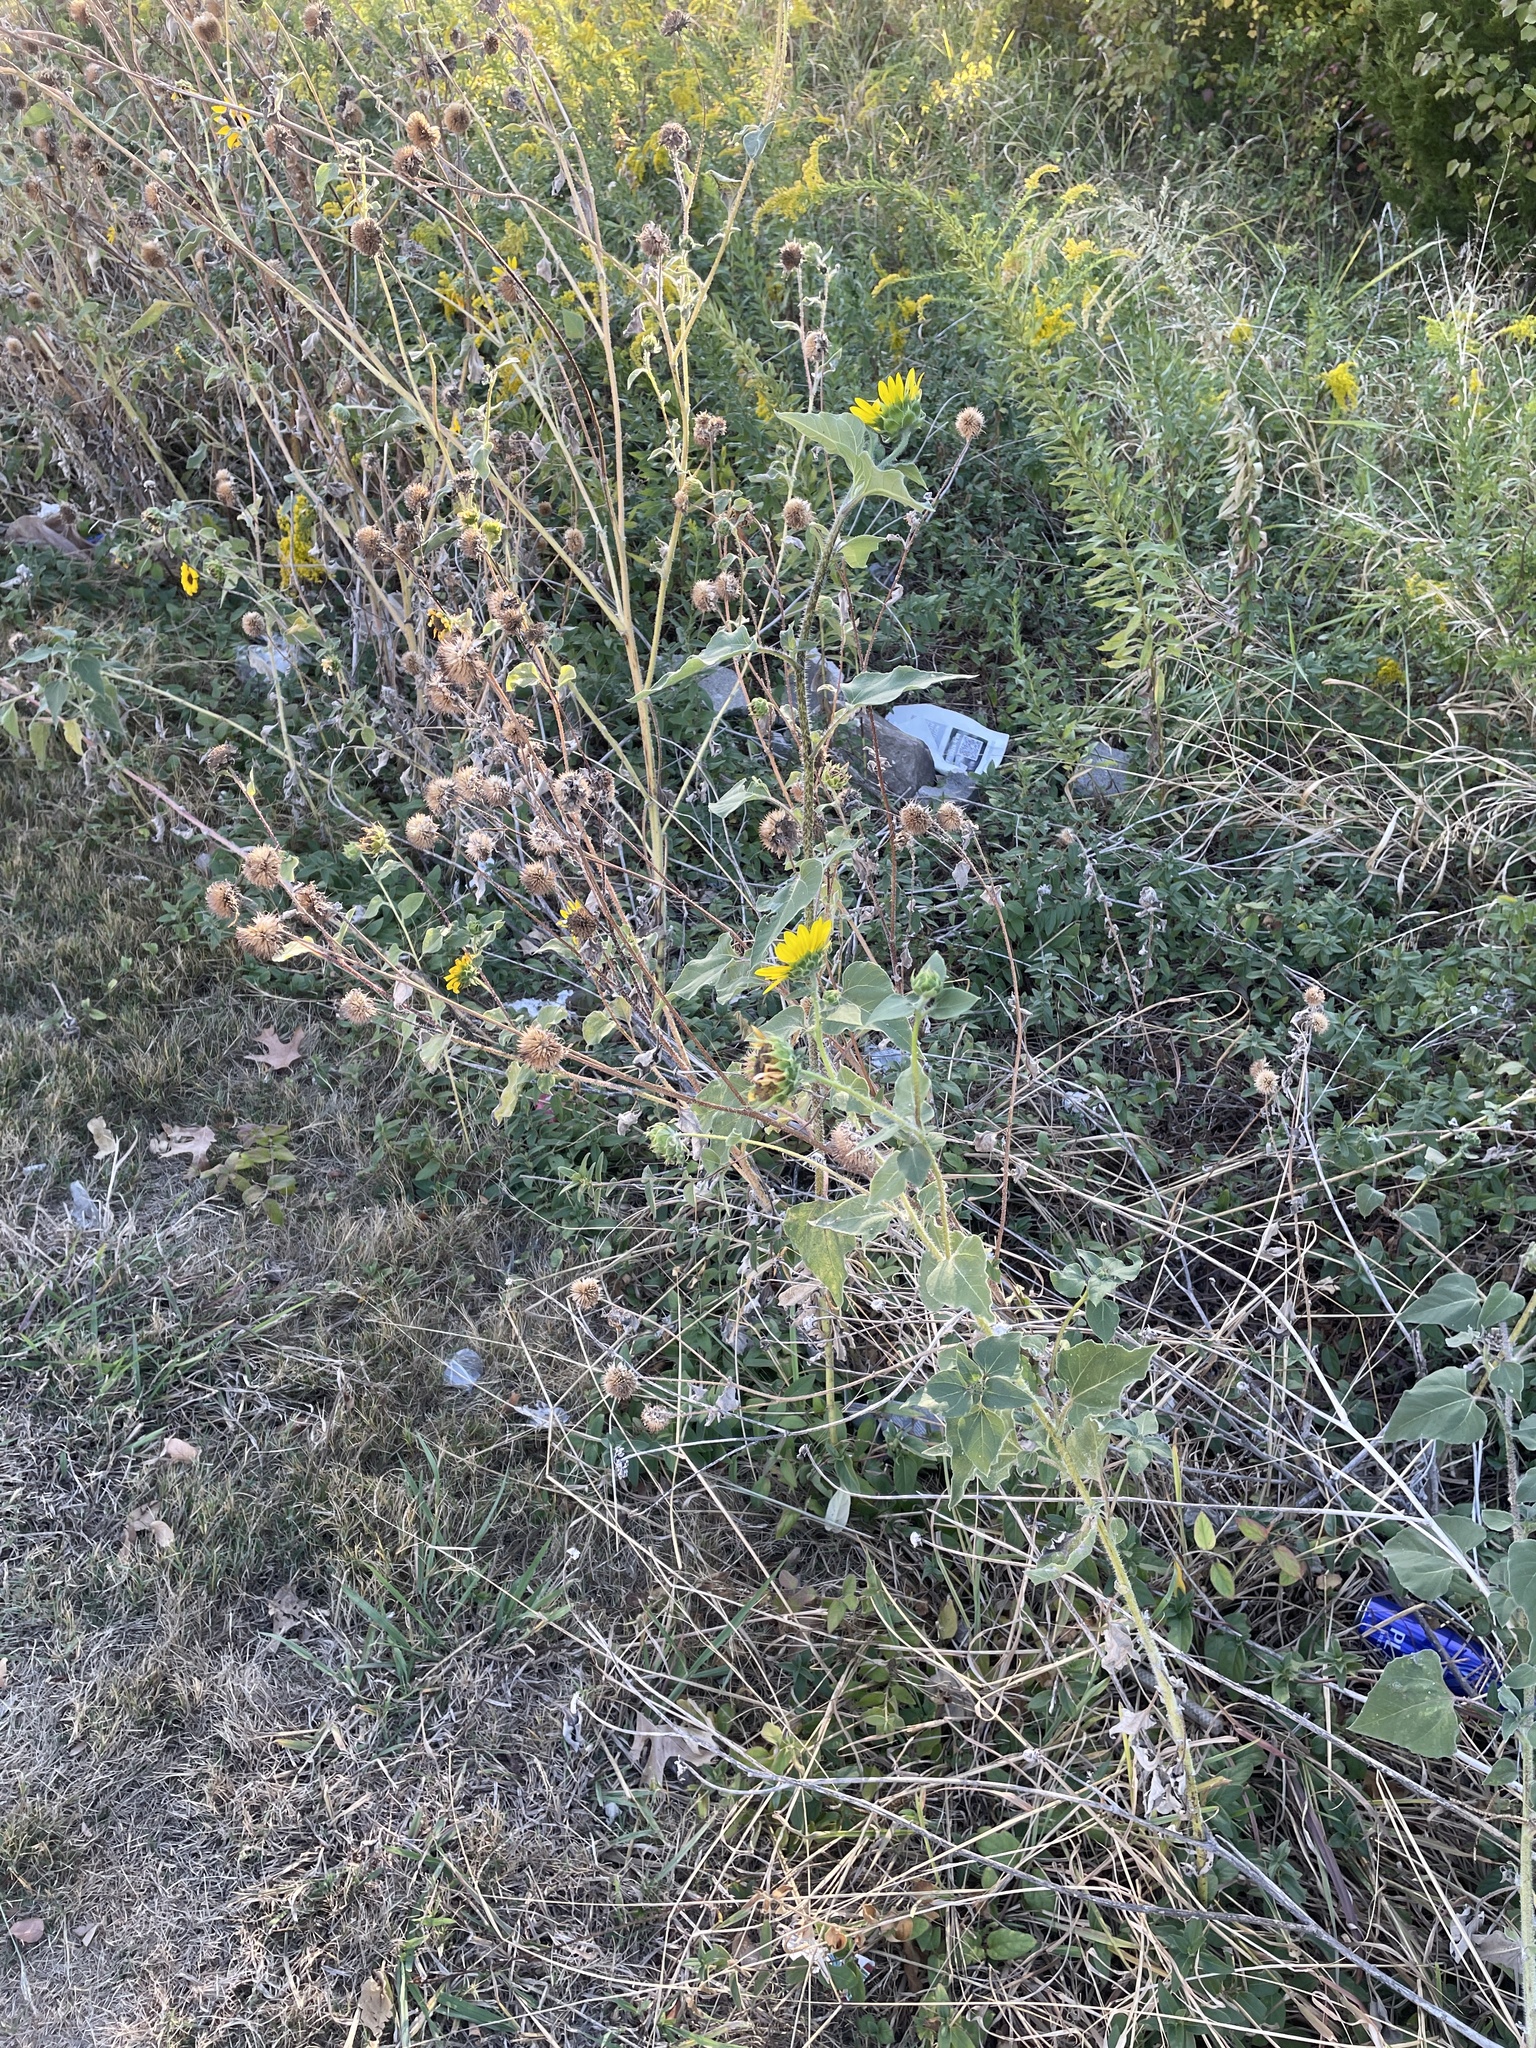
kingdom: Plantae
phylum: Tracheophyta
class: Magnoliopsida
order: Asterales
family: Asteraceae
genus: Helianthus
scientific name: Helianthus annuus
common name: Sunflower
